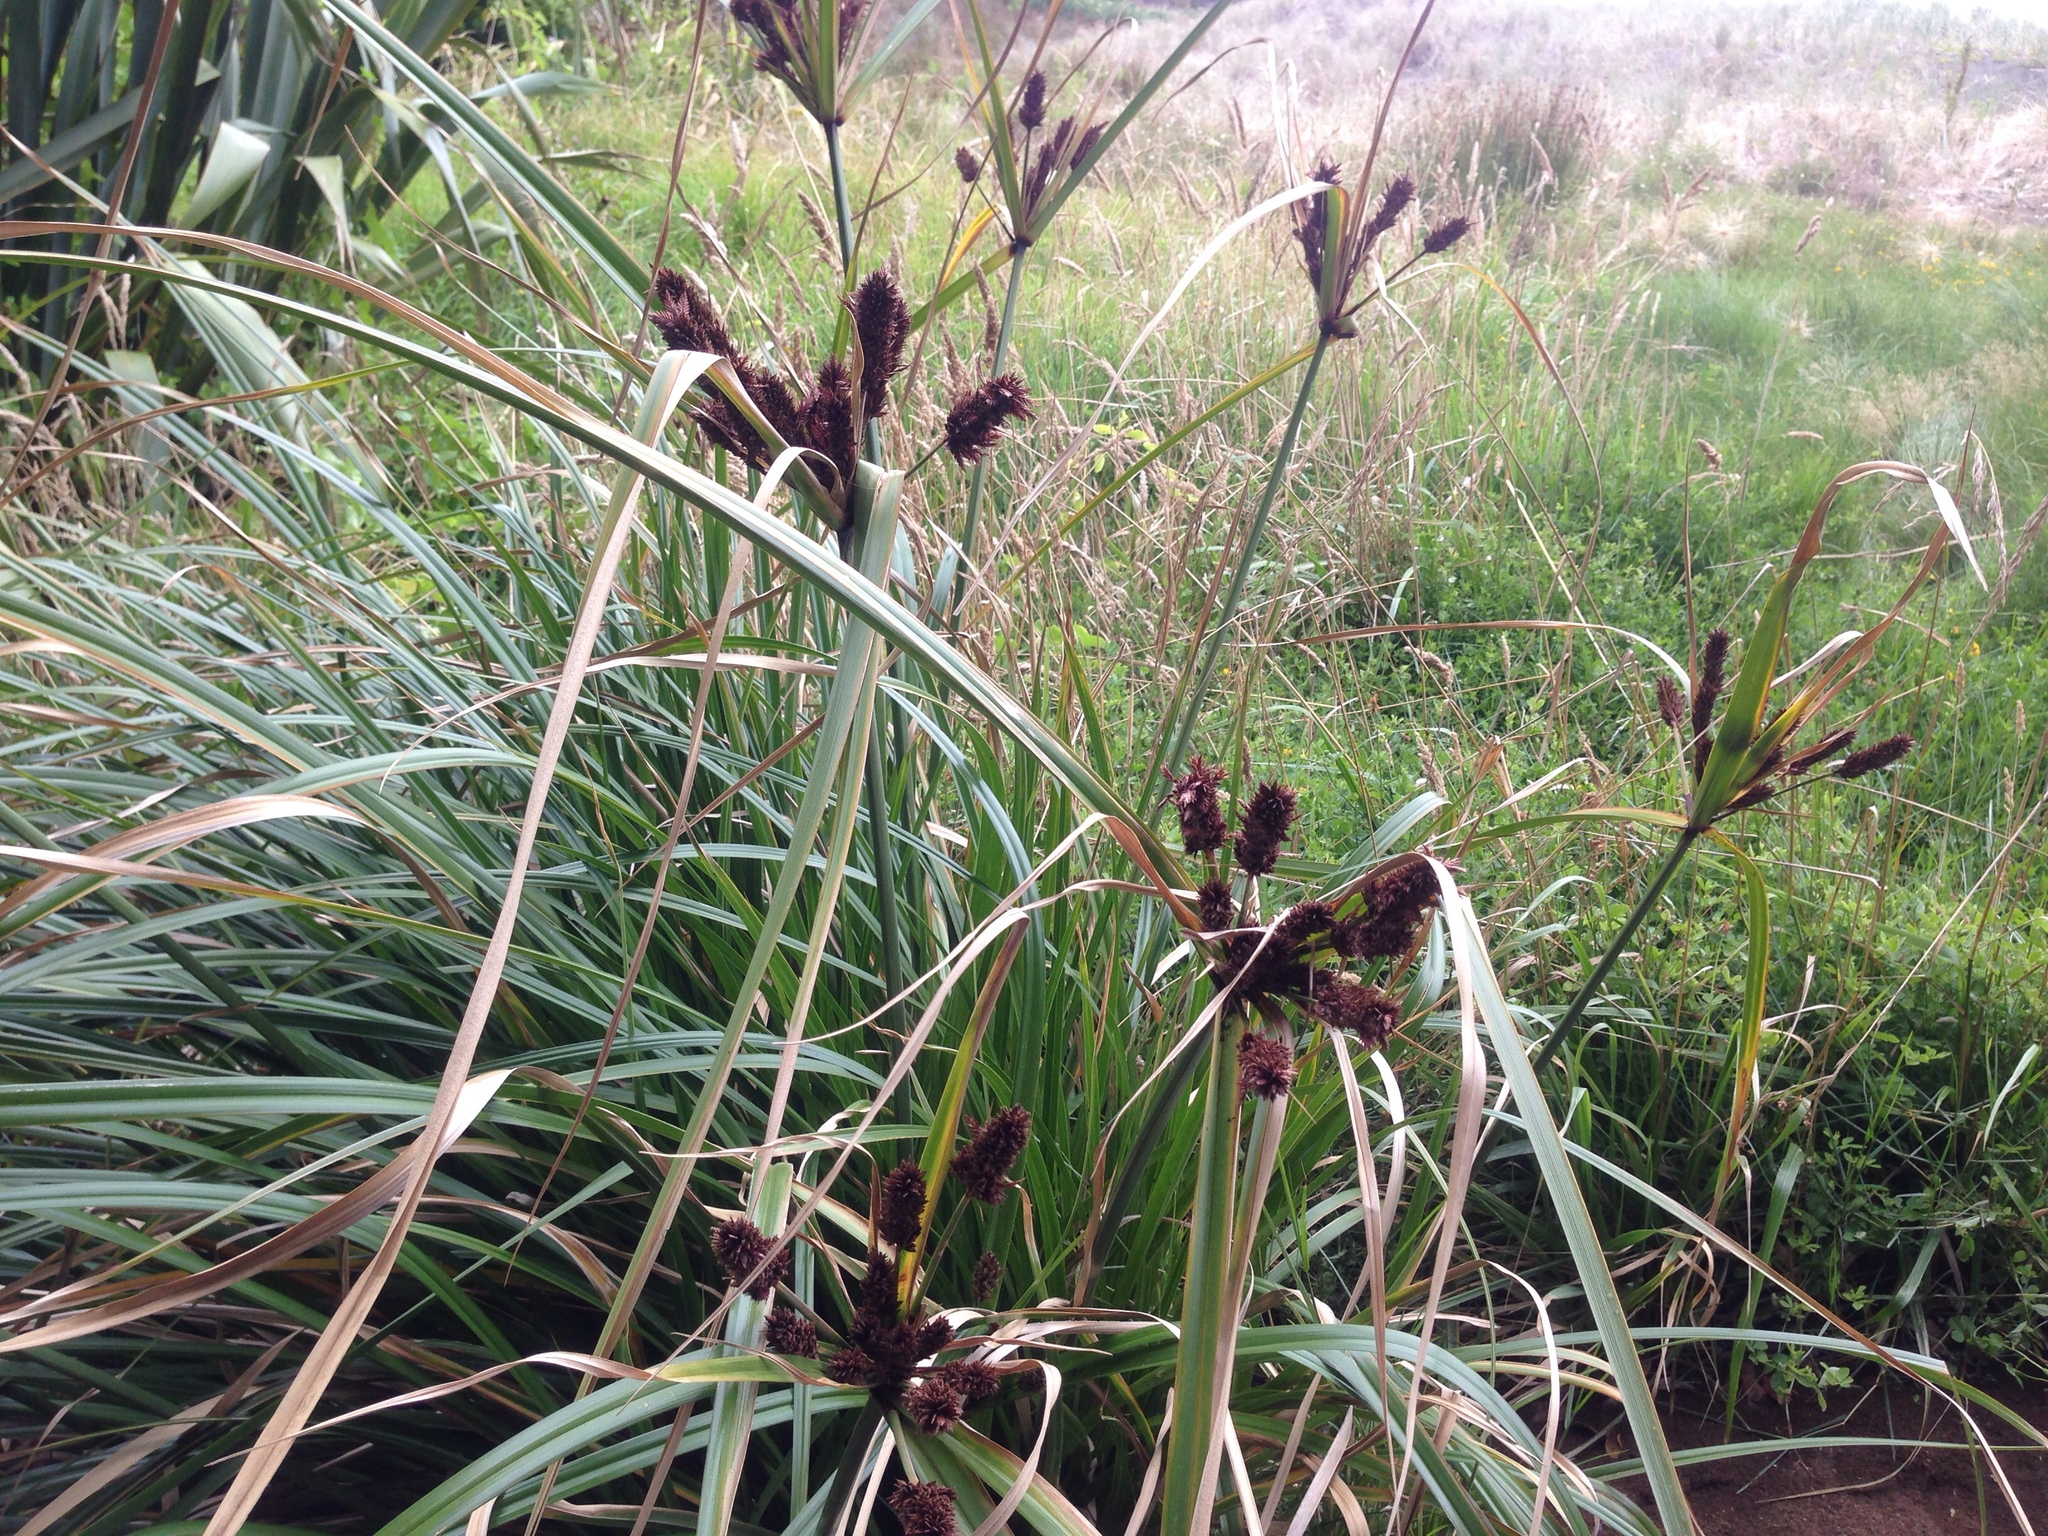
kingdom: Plantae
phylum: Tracheophyta
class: Liliopsida
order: Poales
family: Cyperaceae
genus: Cyperus
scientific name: Cyperus ustulatus
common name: Giant umbrella-sedge
